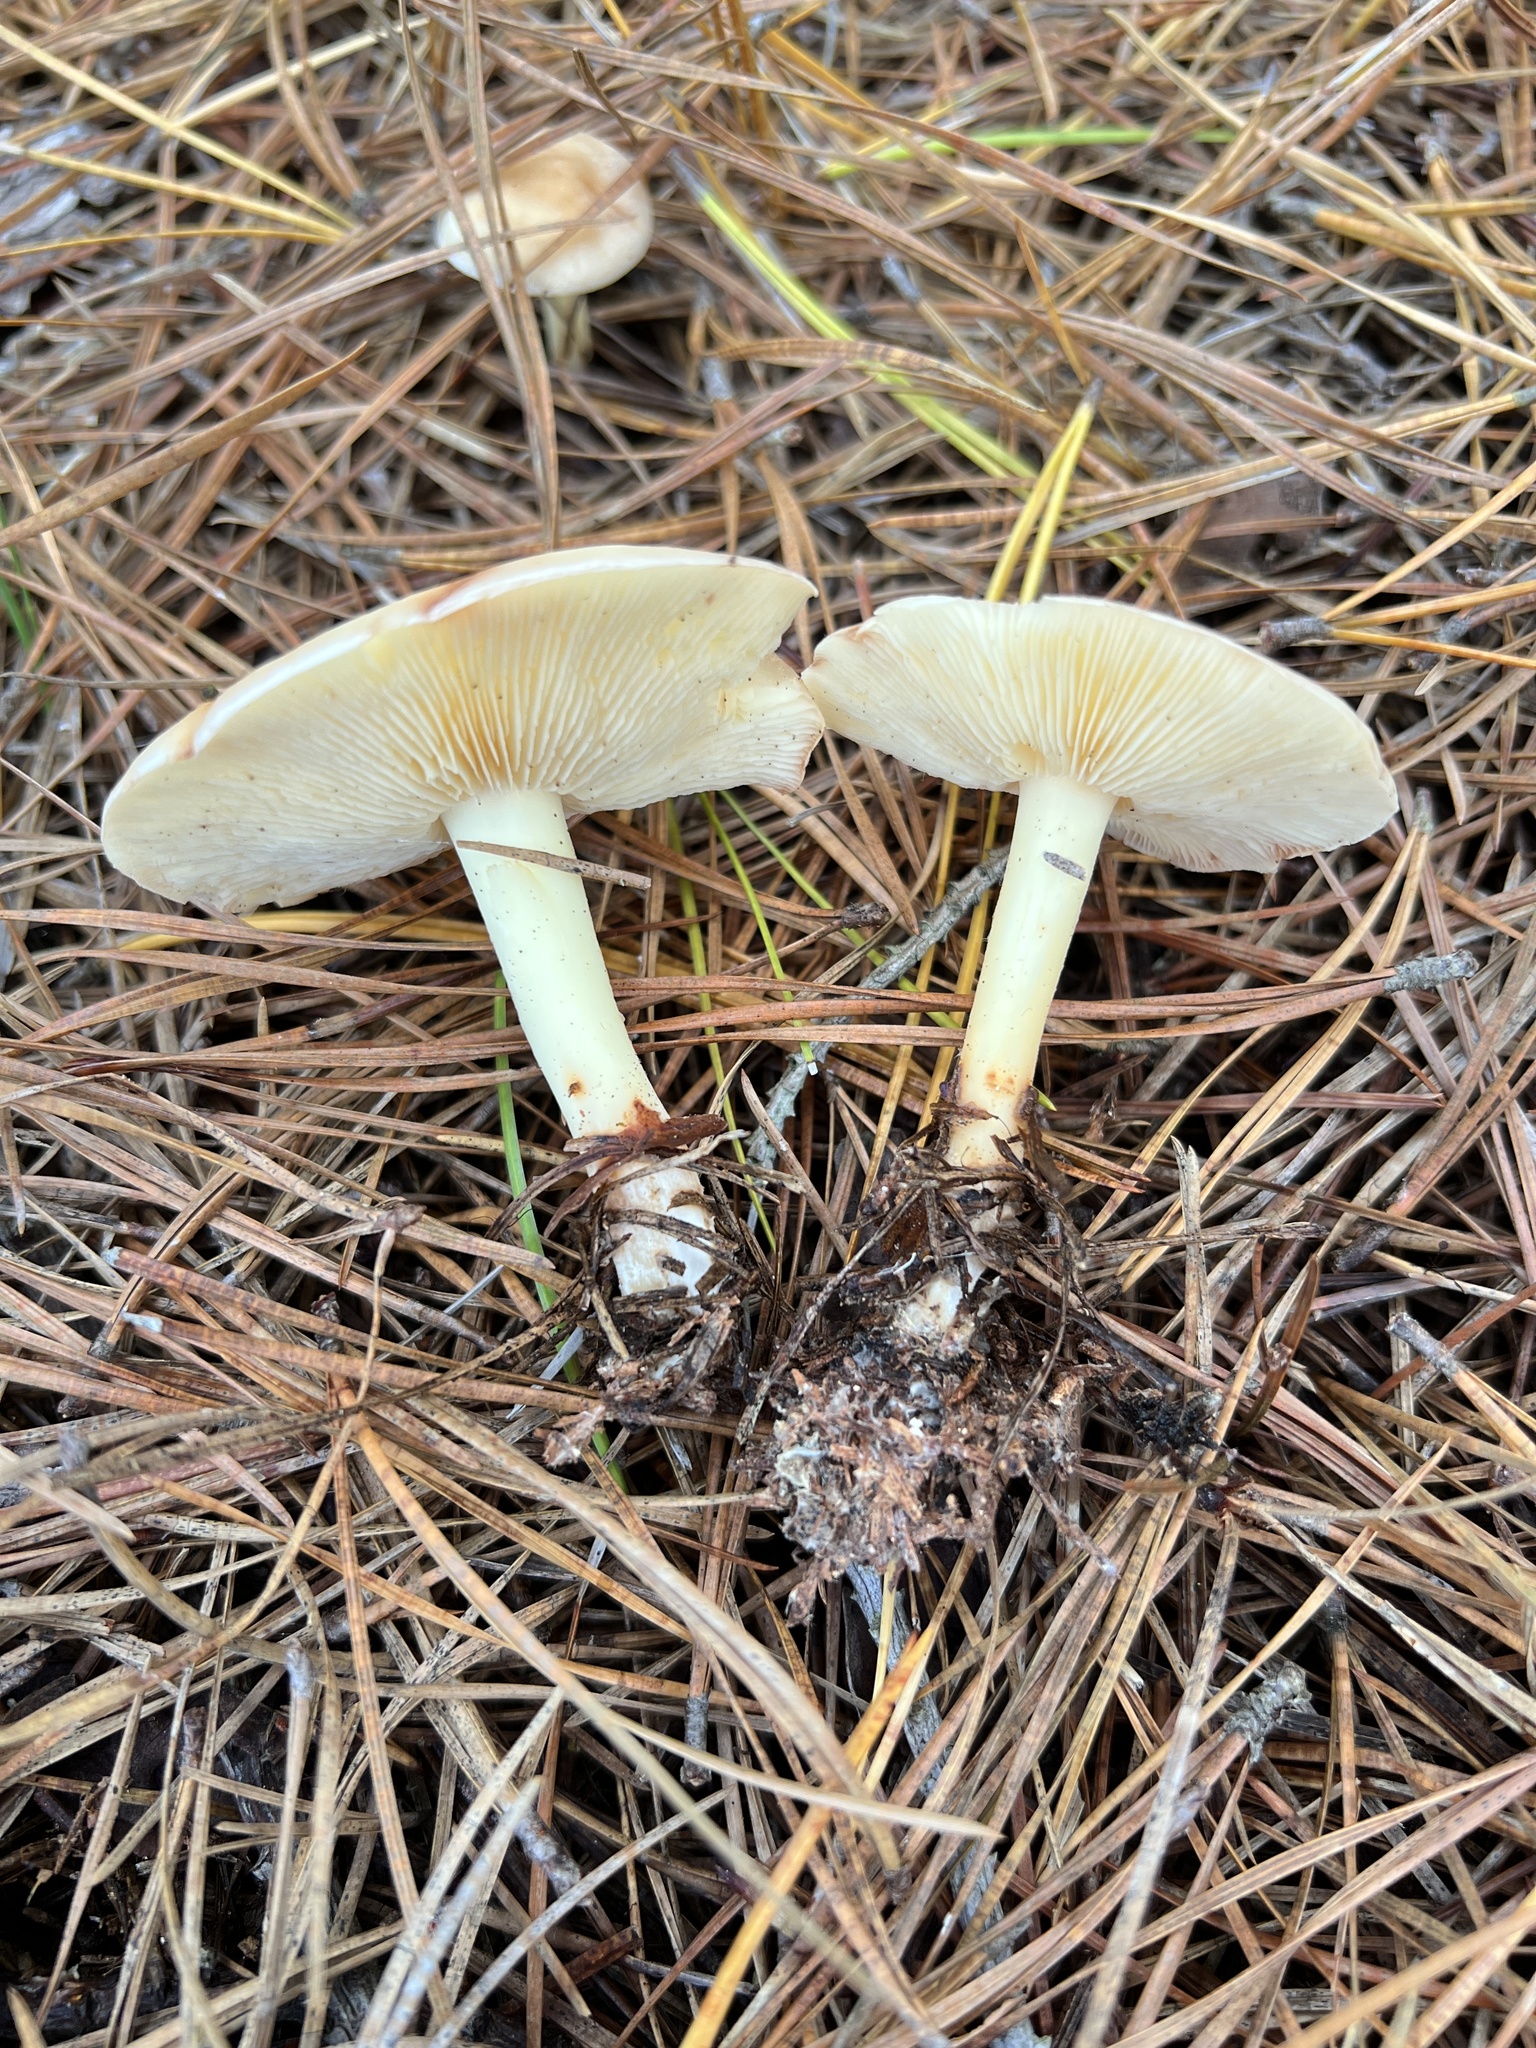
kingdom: Fungi
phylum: Basidiomycota
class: Agaricomycetes
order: Agaricales
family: Omphalotaceae
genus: Rhodocollybia
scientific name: Rhodocollybia maculata
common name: Spotted tough-shank
